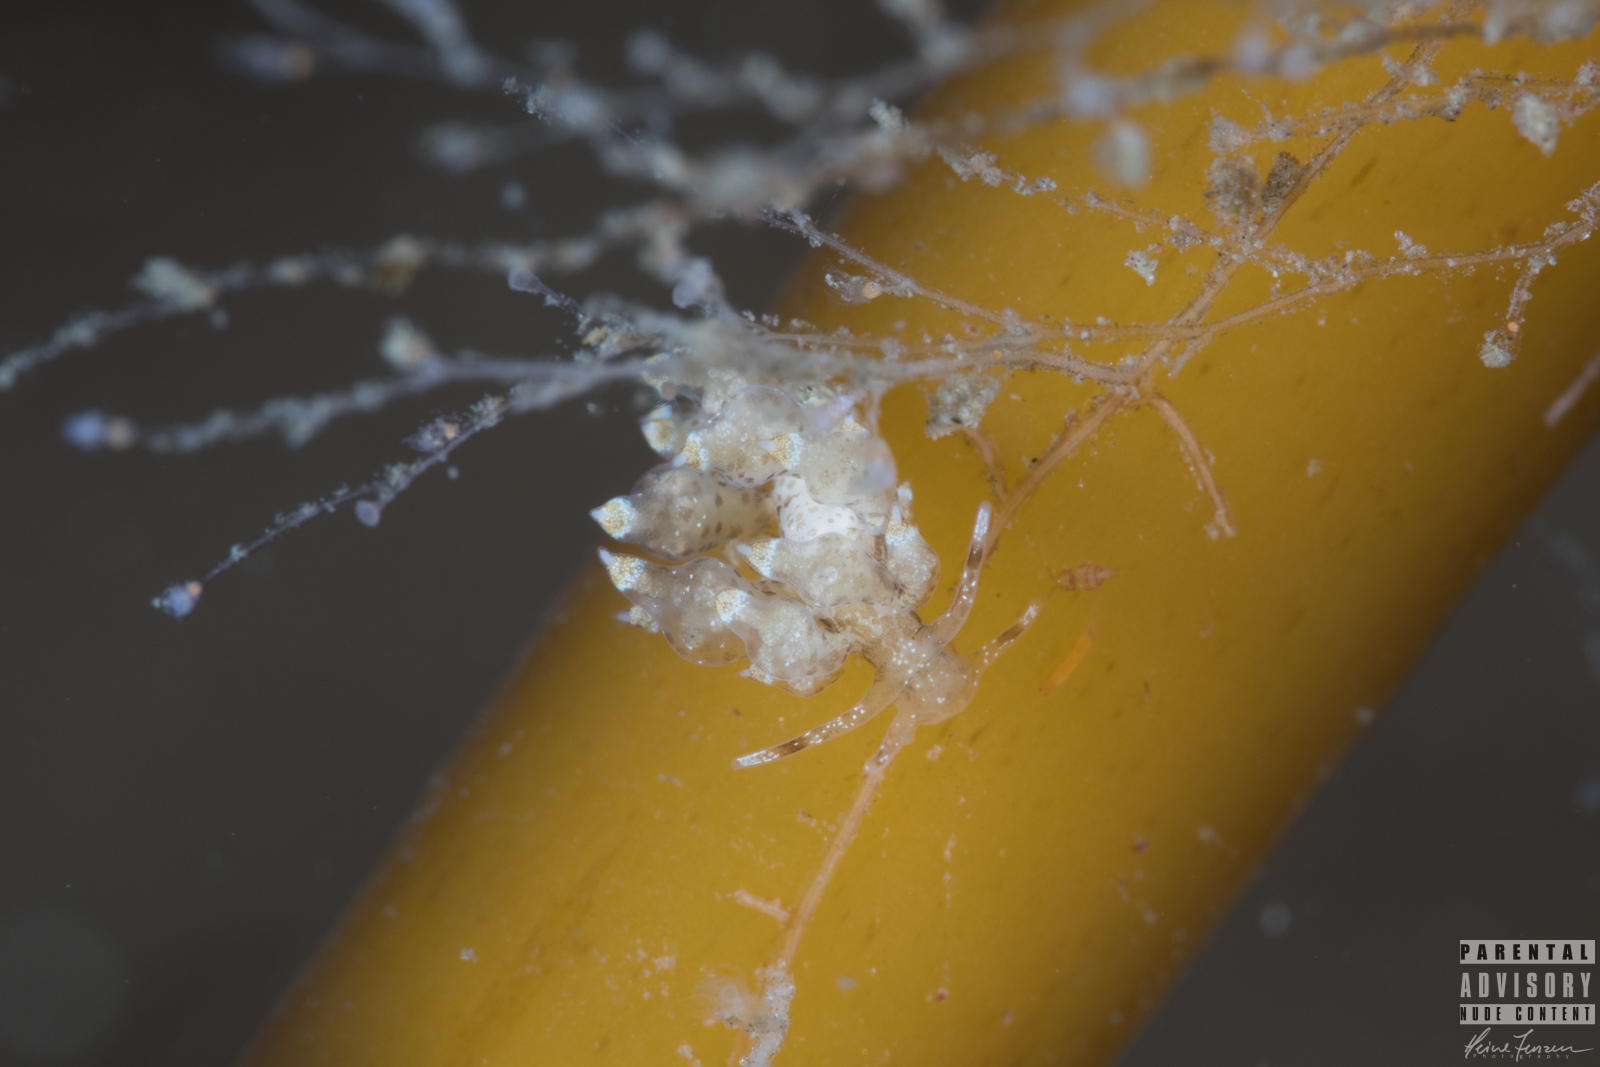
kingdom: Animalia
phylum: Mollusca
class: Gastropoda
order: Nudibranchia
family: Eubranchidae
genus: Eubranchus
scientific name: Eubranchus exiguus
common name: Balloon aeolis
